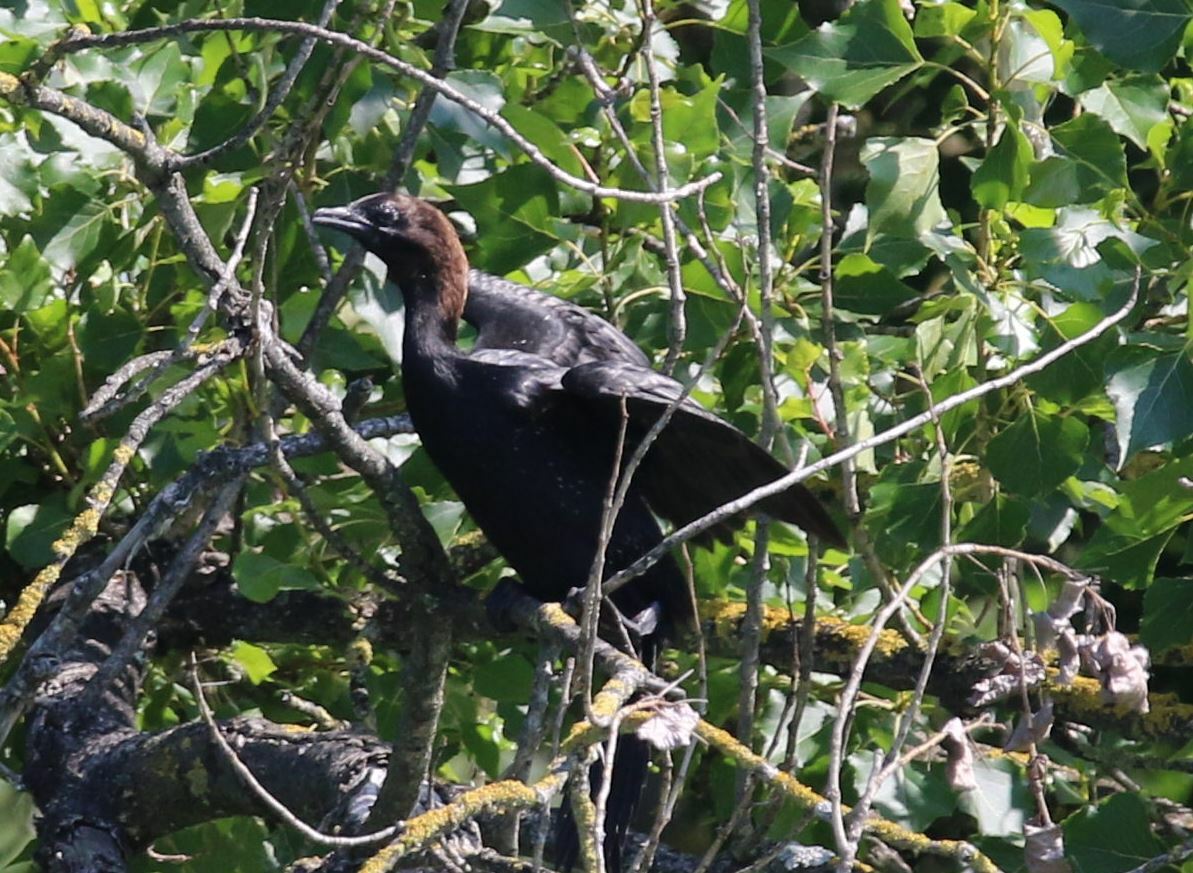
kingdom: Animalia
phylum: Chordata
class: Aves
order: Suliformes
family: Phalacrocoracidae
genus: Microcarbo
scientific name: Microcarbo pygmaeus
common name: Pygmy cormorant
